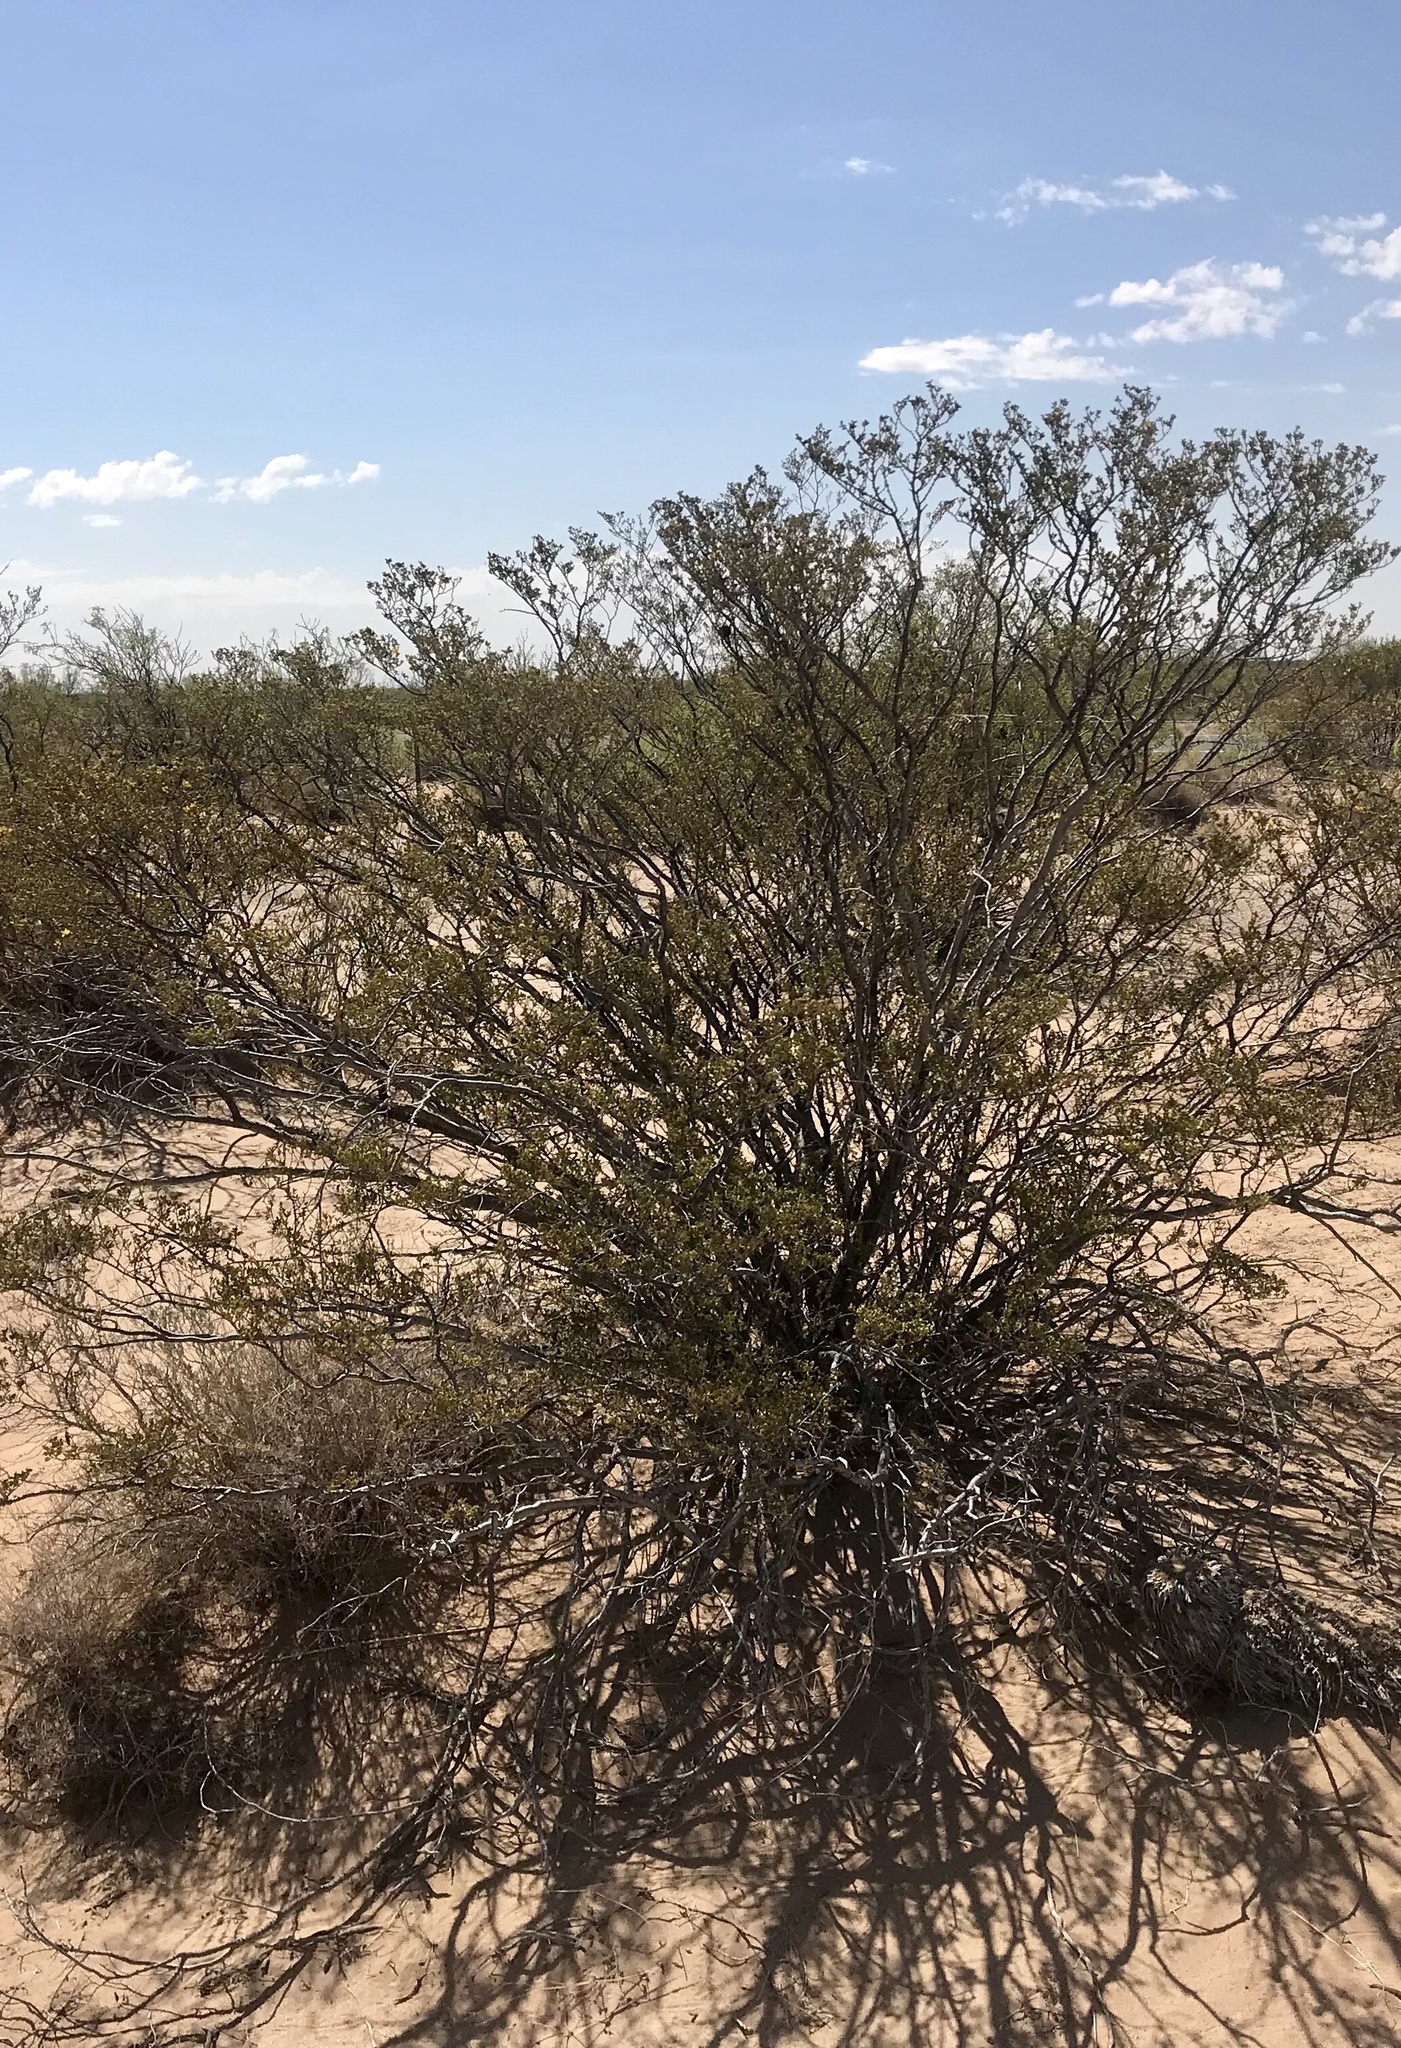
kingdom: Plantae
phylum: Tracheophyta
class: Magnoliopsida
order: Zygophyllales
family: Zygophyllaceae
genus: Larrea
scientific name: Larrea tridentata
